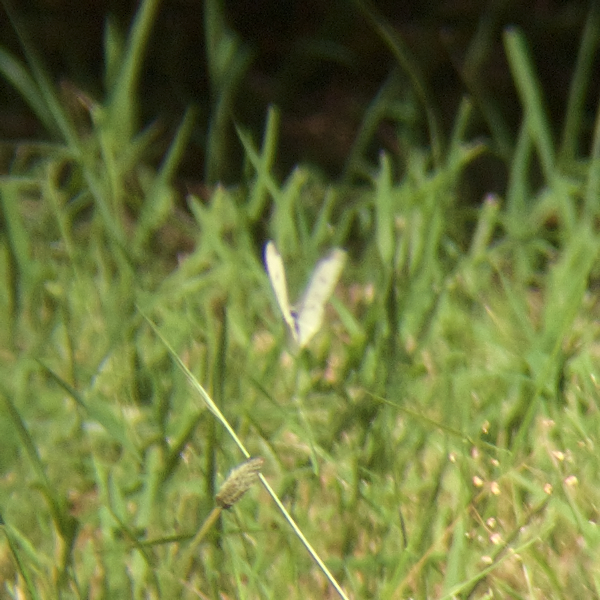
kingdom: Animalia
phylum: Arthropoda
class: Insecta
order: Lepidoptera
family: Pieridae
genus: Pieris
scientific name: Pieris rapae
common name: Small white
